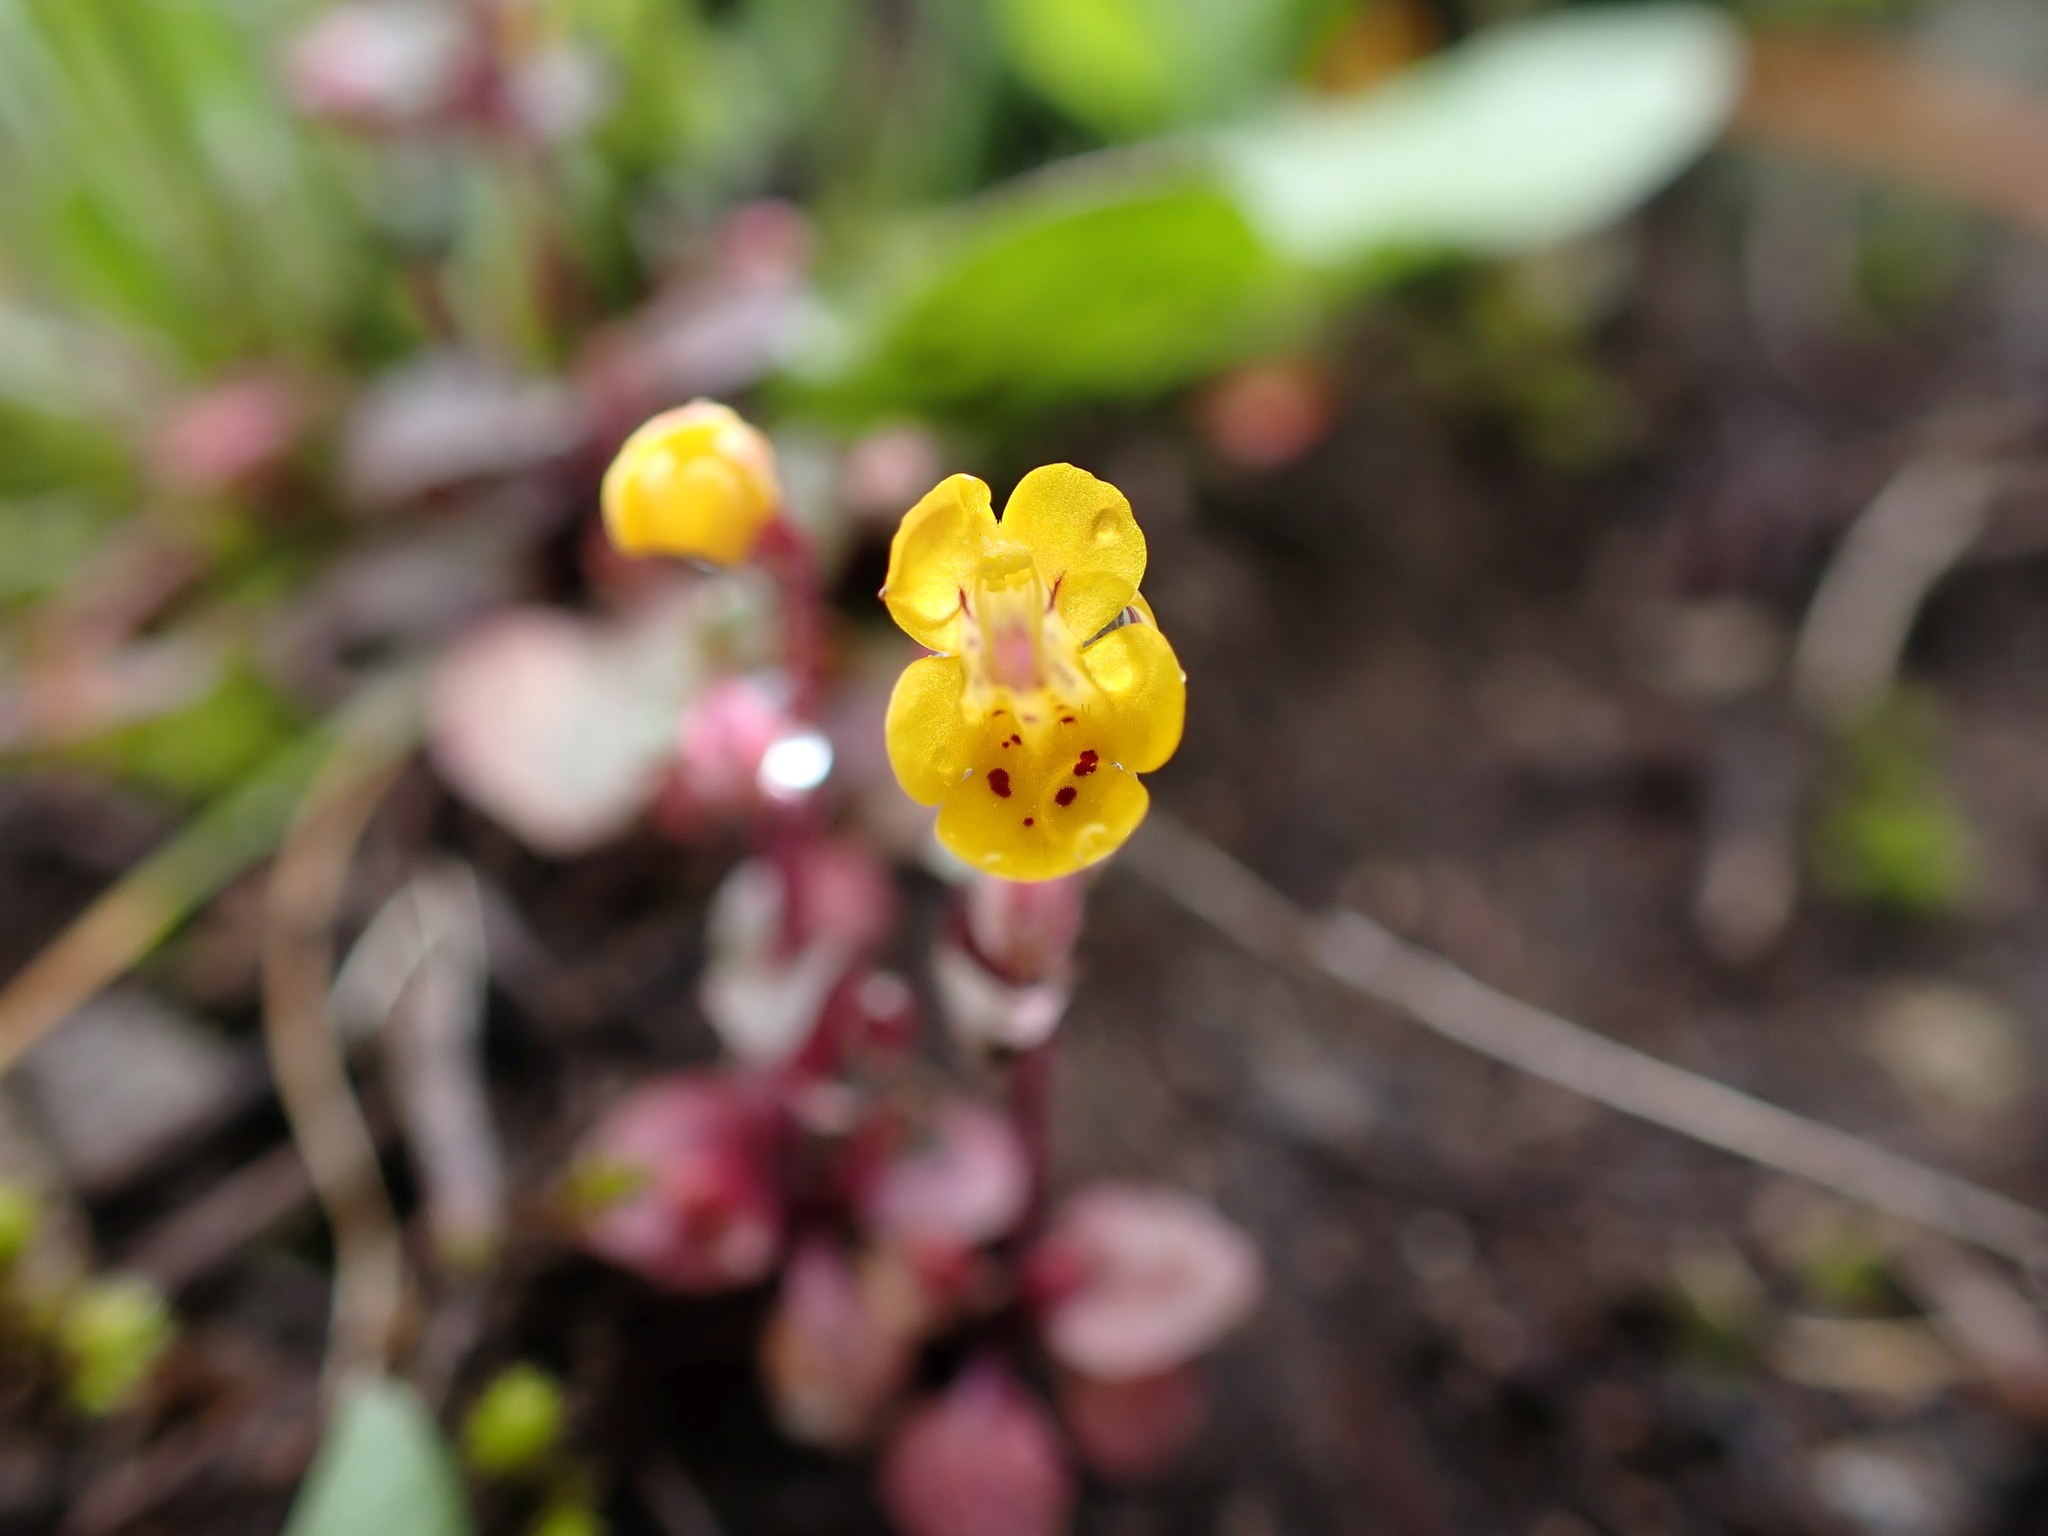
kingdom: Plantae
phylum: Tracheophyta
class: Magnoliopsida
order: Lamiales
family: Phrymaceae
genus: Erythranthe
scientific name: Erythranthe alsinoides
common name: Chickweed monkeyflower
